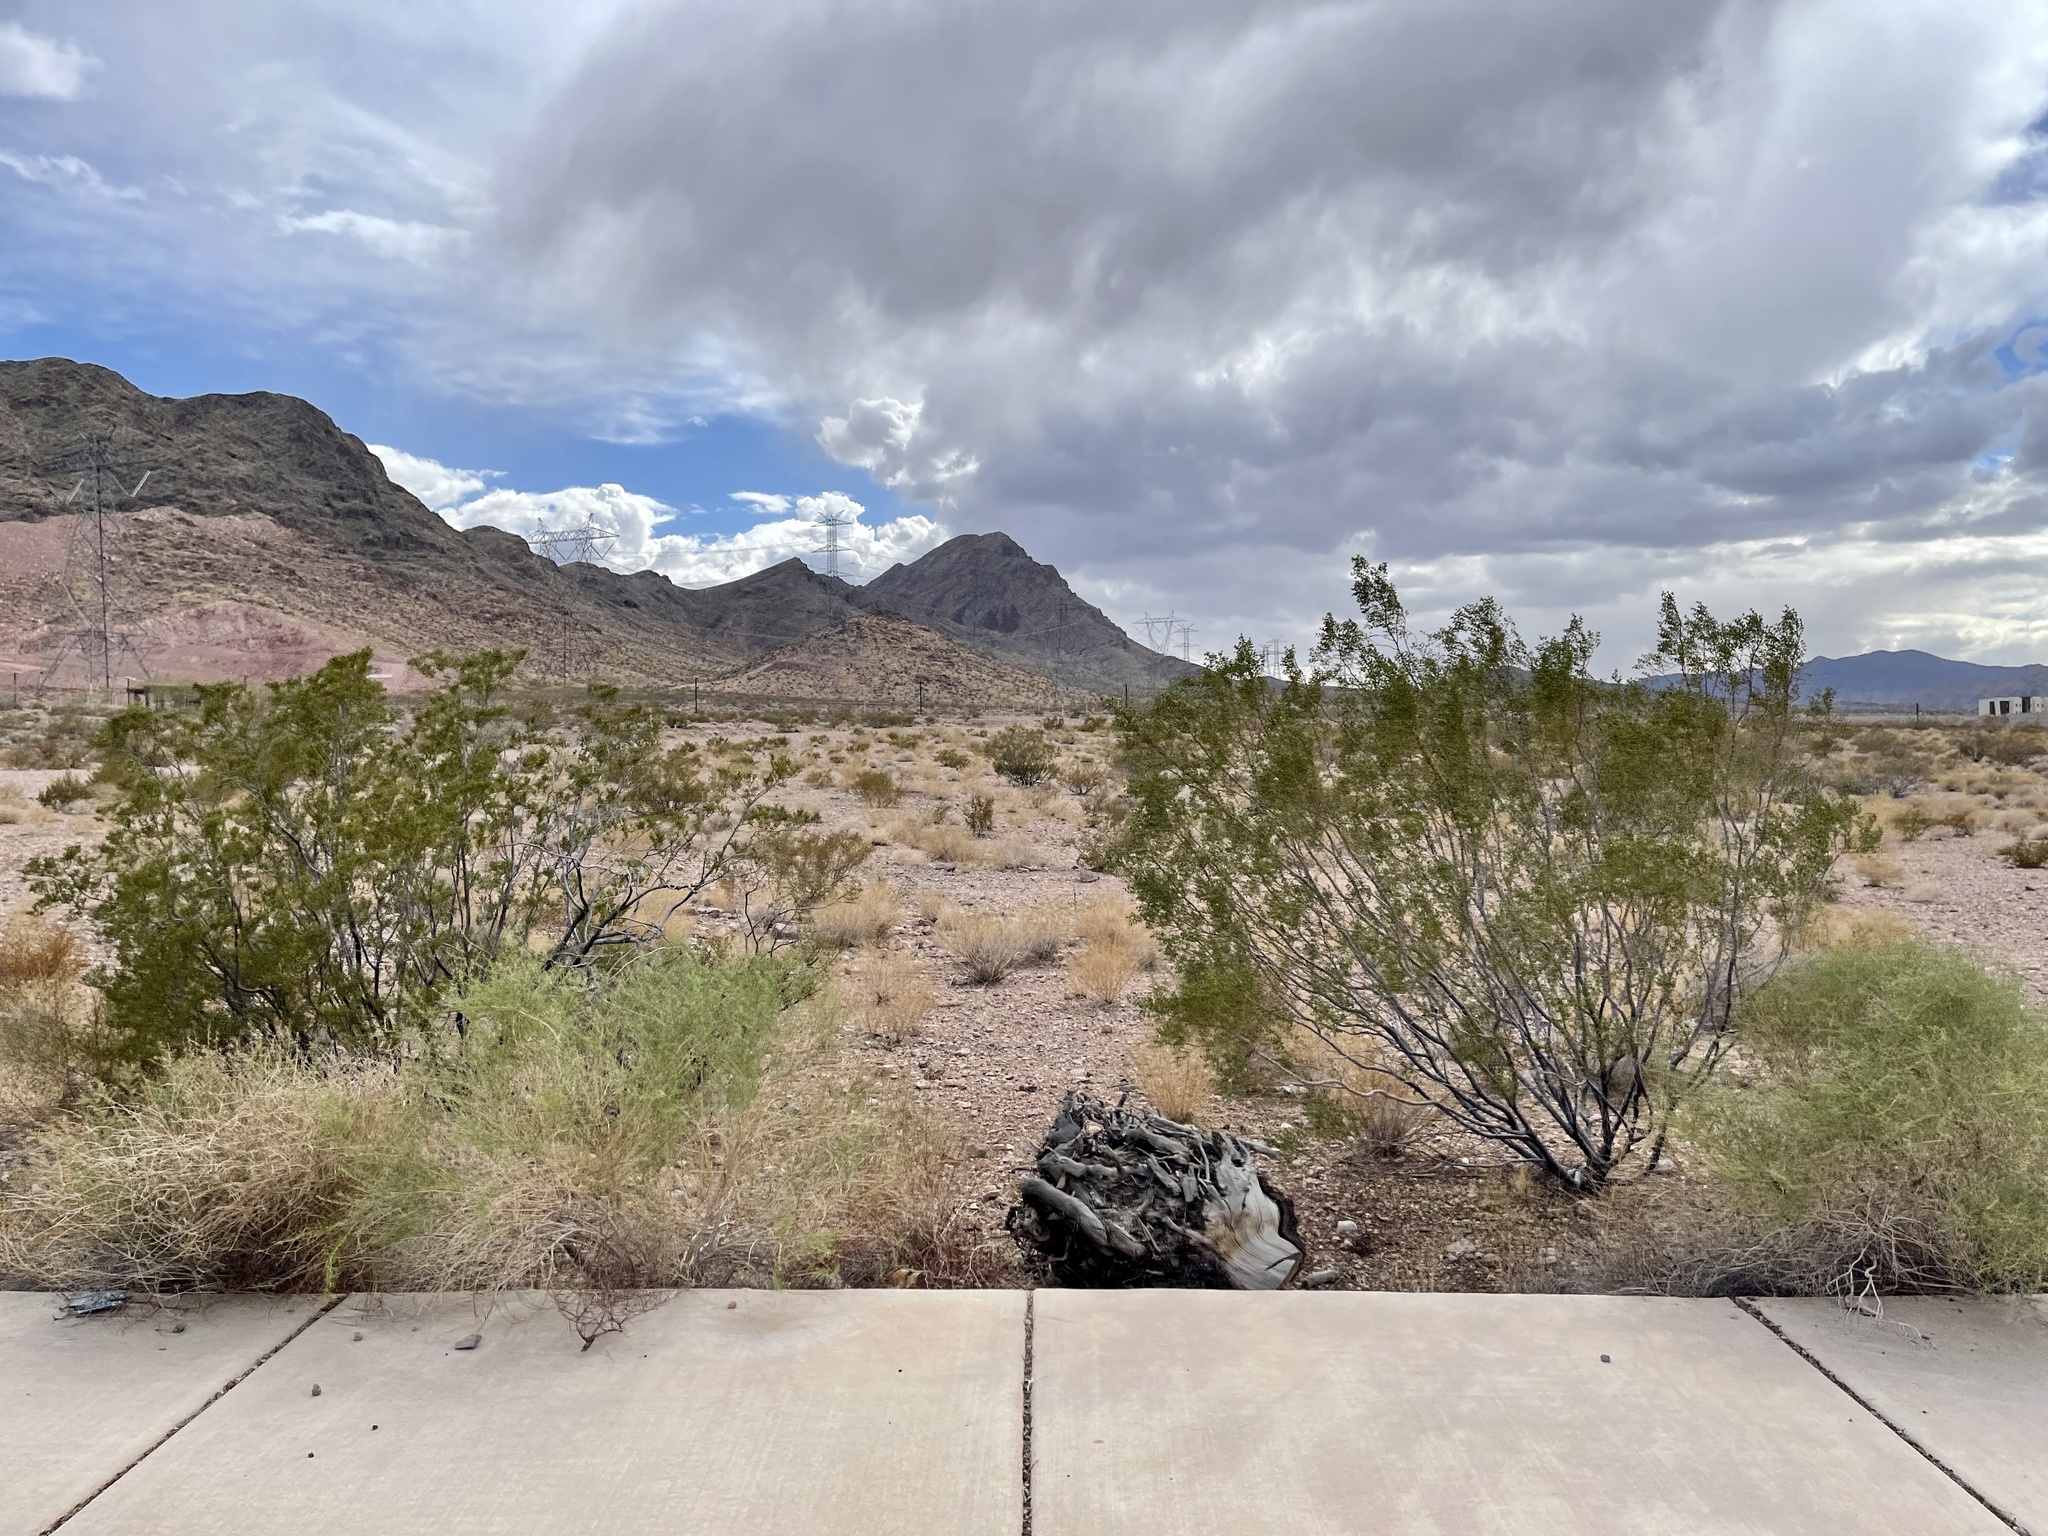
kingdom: Plantae
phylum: Tracheophyta
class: Magnoliopsida
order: Zygophyllales
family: Zygophyllaceae
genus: Larrea
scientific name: Larrea tridentata
